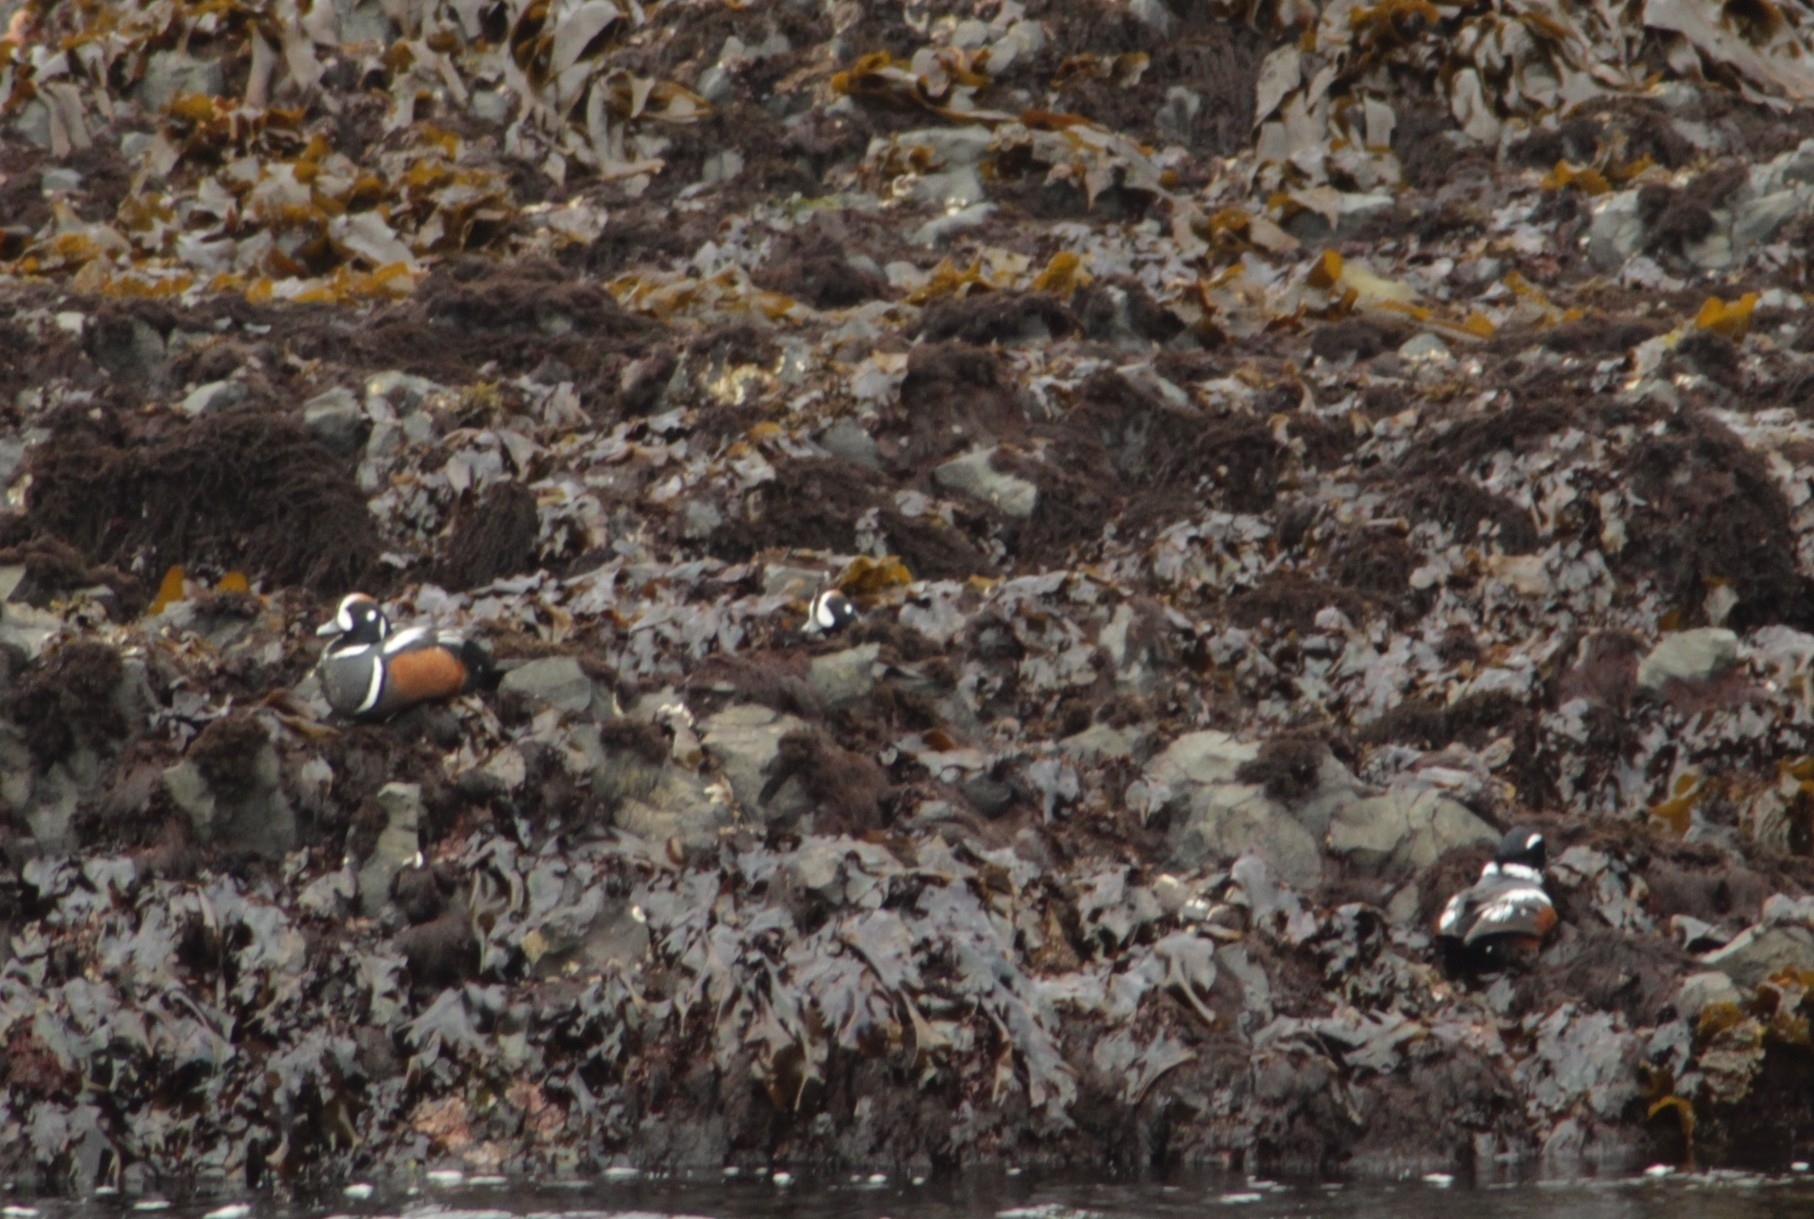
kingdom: Animalia
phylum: Chordata
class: Aves
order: Anseriformes
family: Anatidae
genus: Histrionicus
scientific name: Histrionicus histrionicus
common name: Harlequin duck
